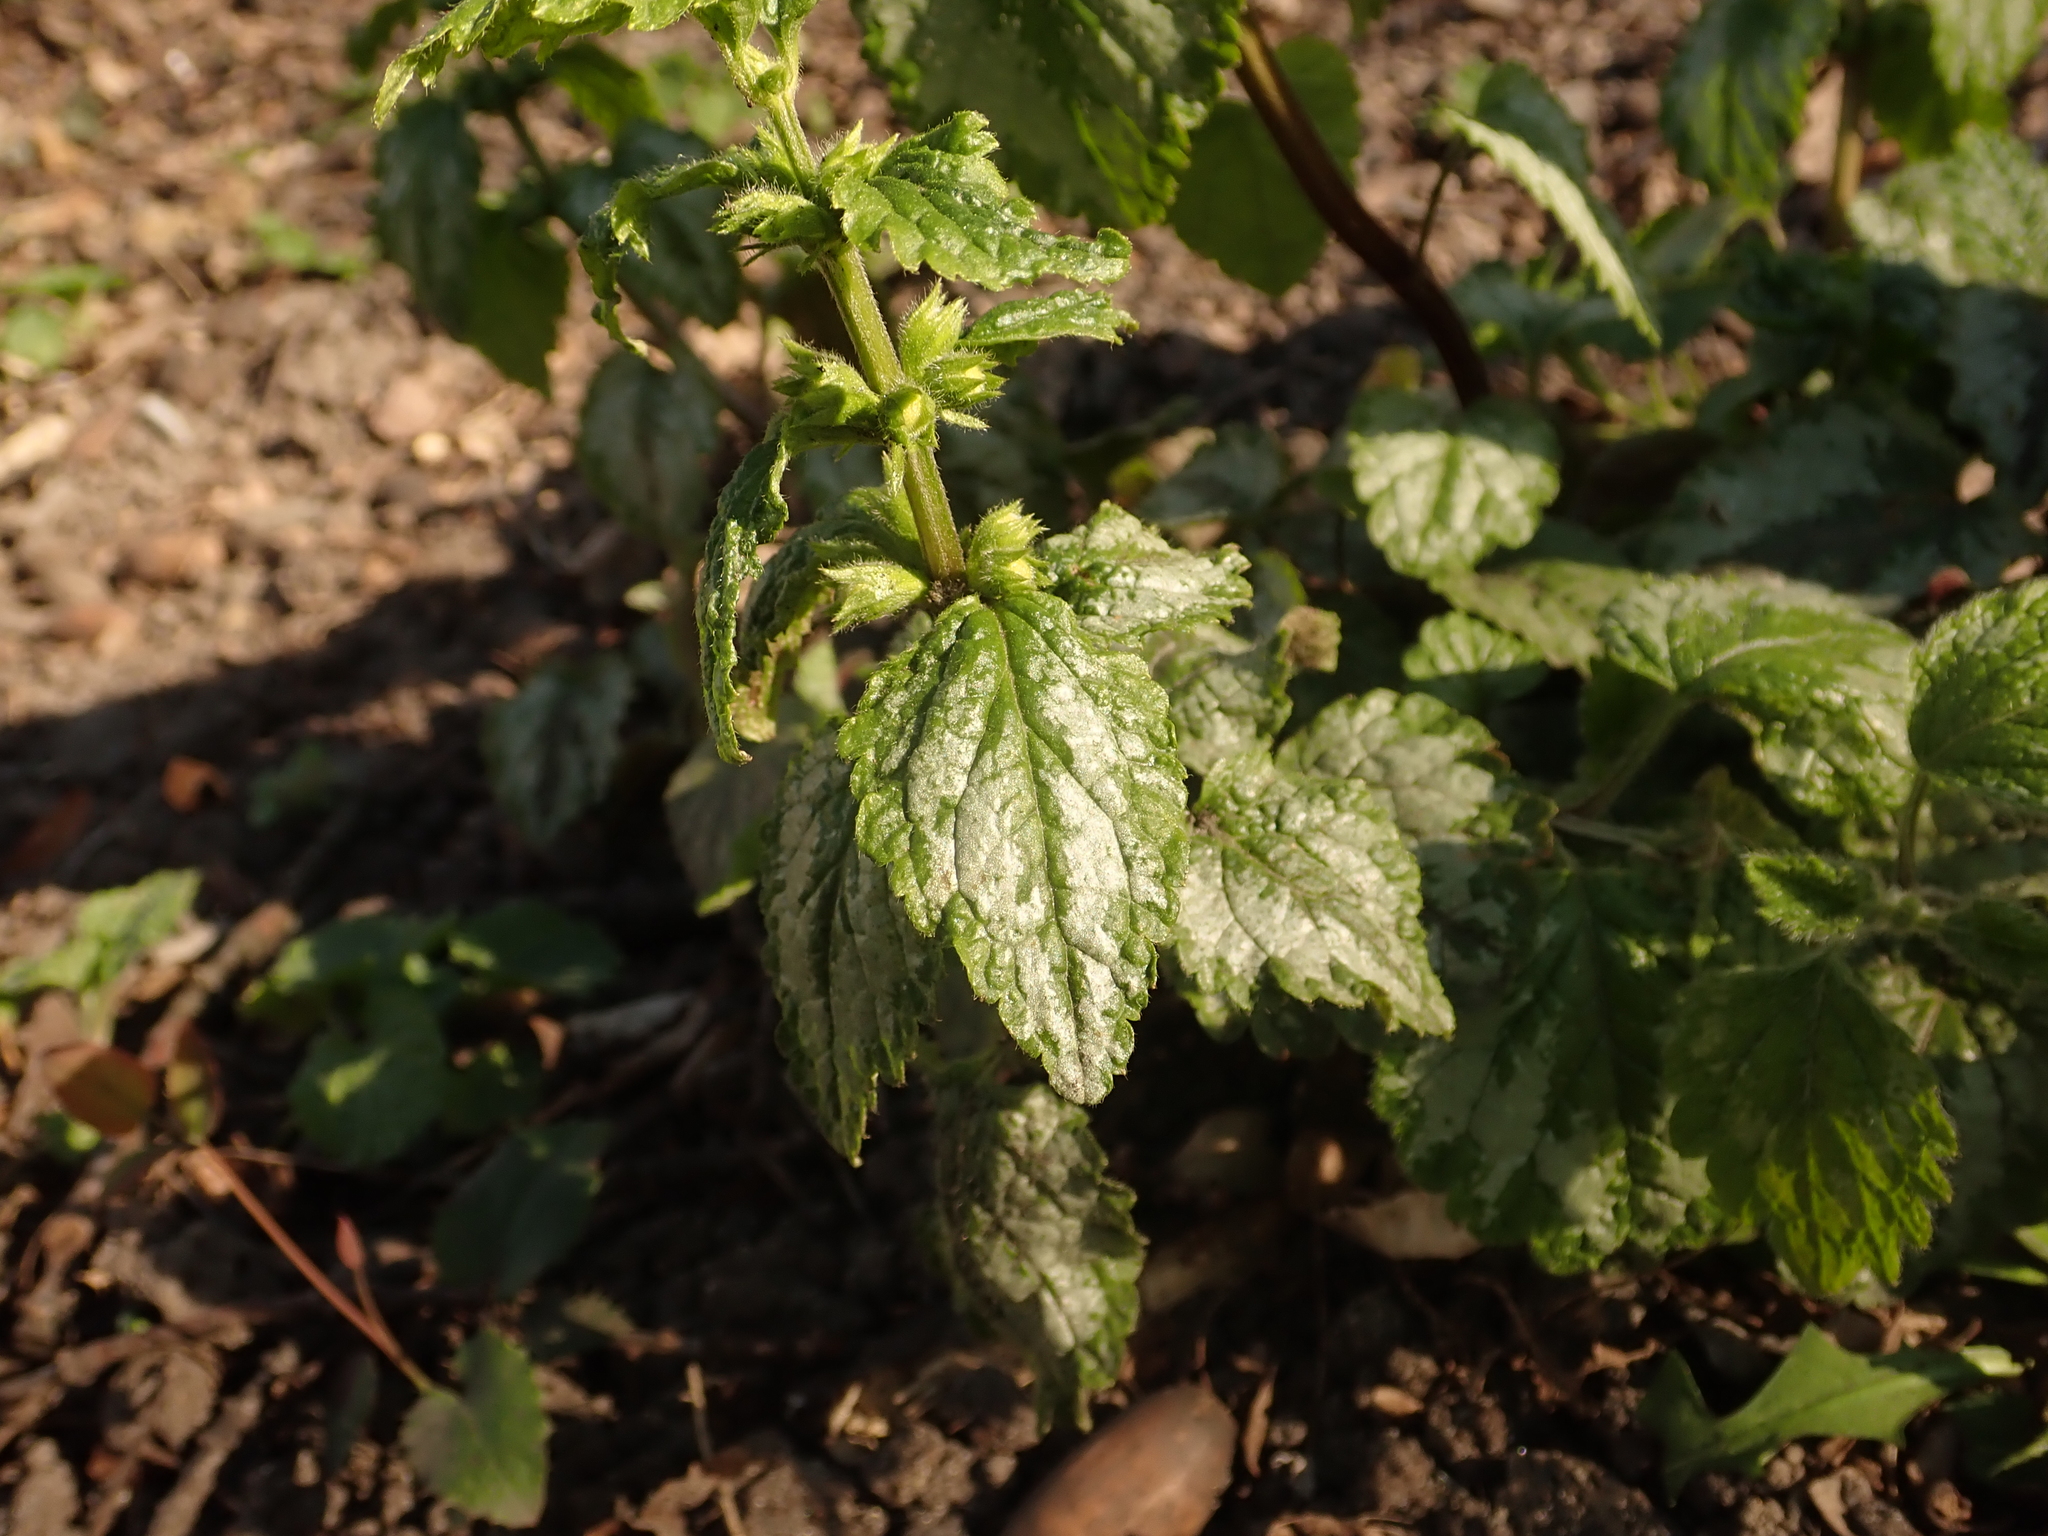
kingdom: Plantae
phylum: Tracheophyta
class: Magnoliopsida
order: Lamiales
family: Lamiaceae
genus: Lamium
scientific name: Lamium galeobdolon
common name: Yellow archangel
